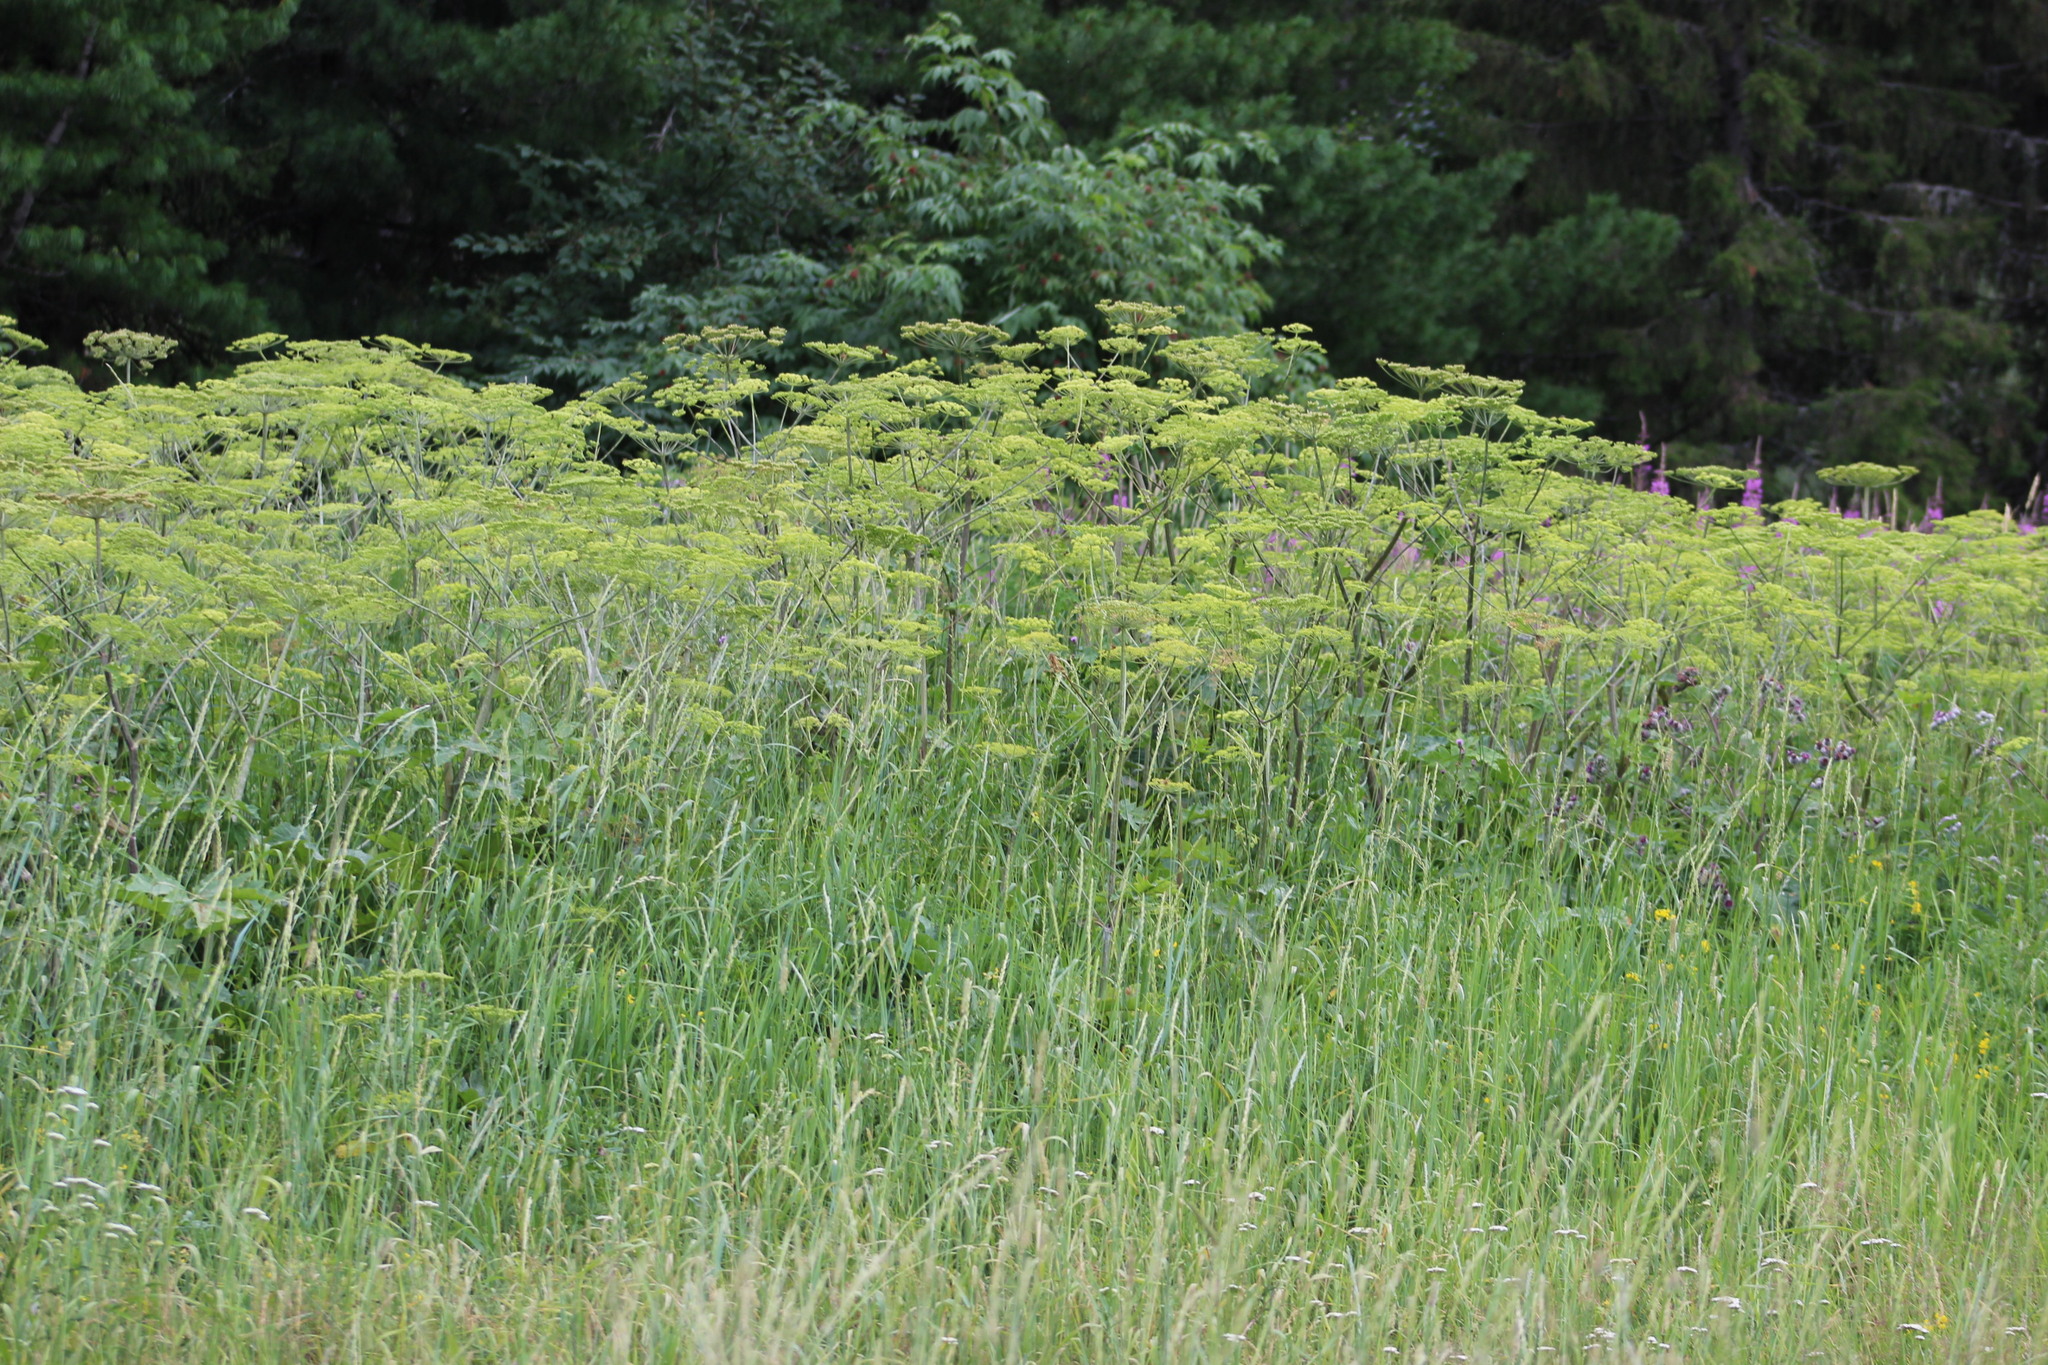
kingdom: Plantae
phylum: Tracheophyta
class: Magnoliopsida
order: Apiales
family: Apiaceae
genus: Heracleum
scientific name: Heracleum sphondylium
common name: Hogweed
